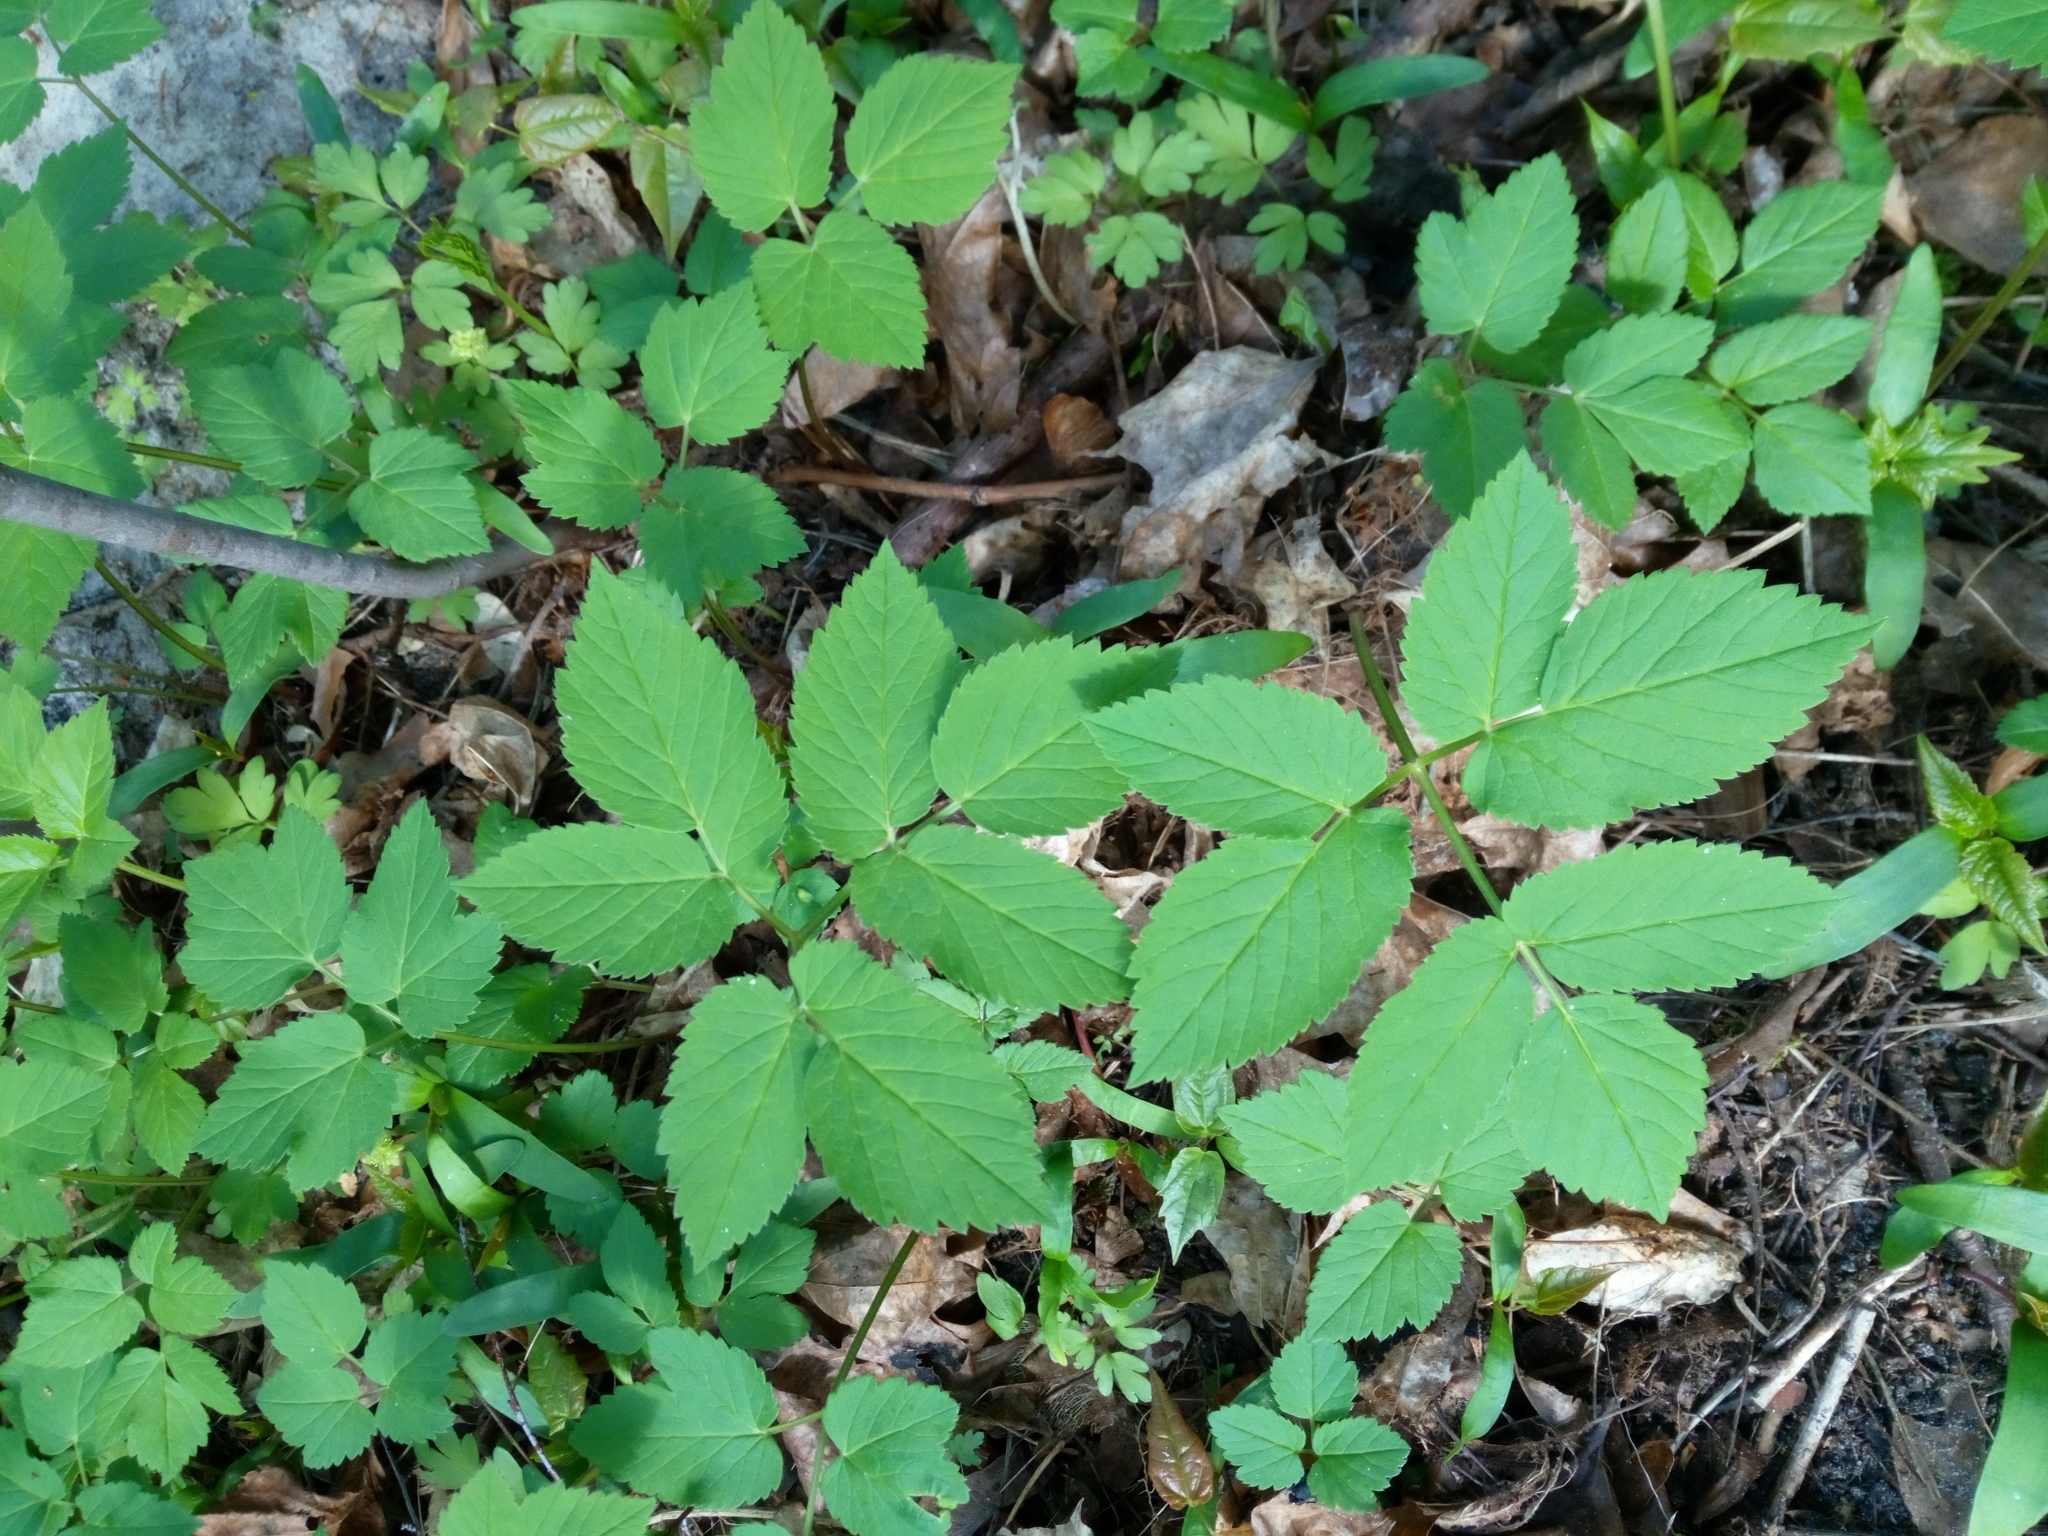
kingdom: Plantae
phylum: Tracheophyta
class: Magnoliopsida
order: Apiales
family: Apiaceae
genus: Aegopodium
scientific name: Aegopodium podagraria
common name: Ground-elder
